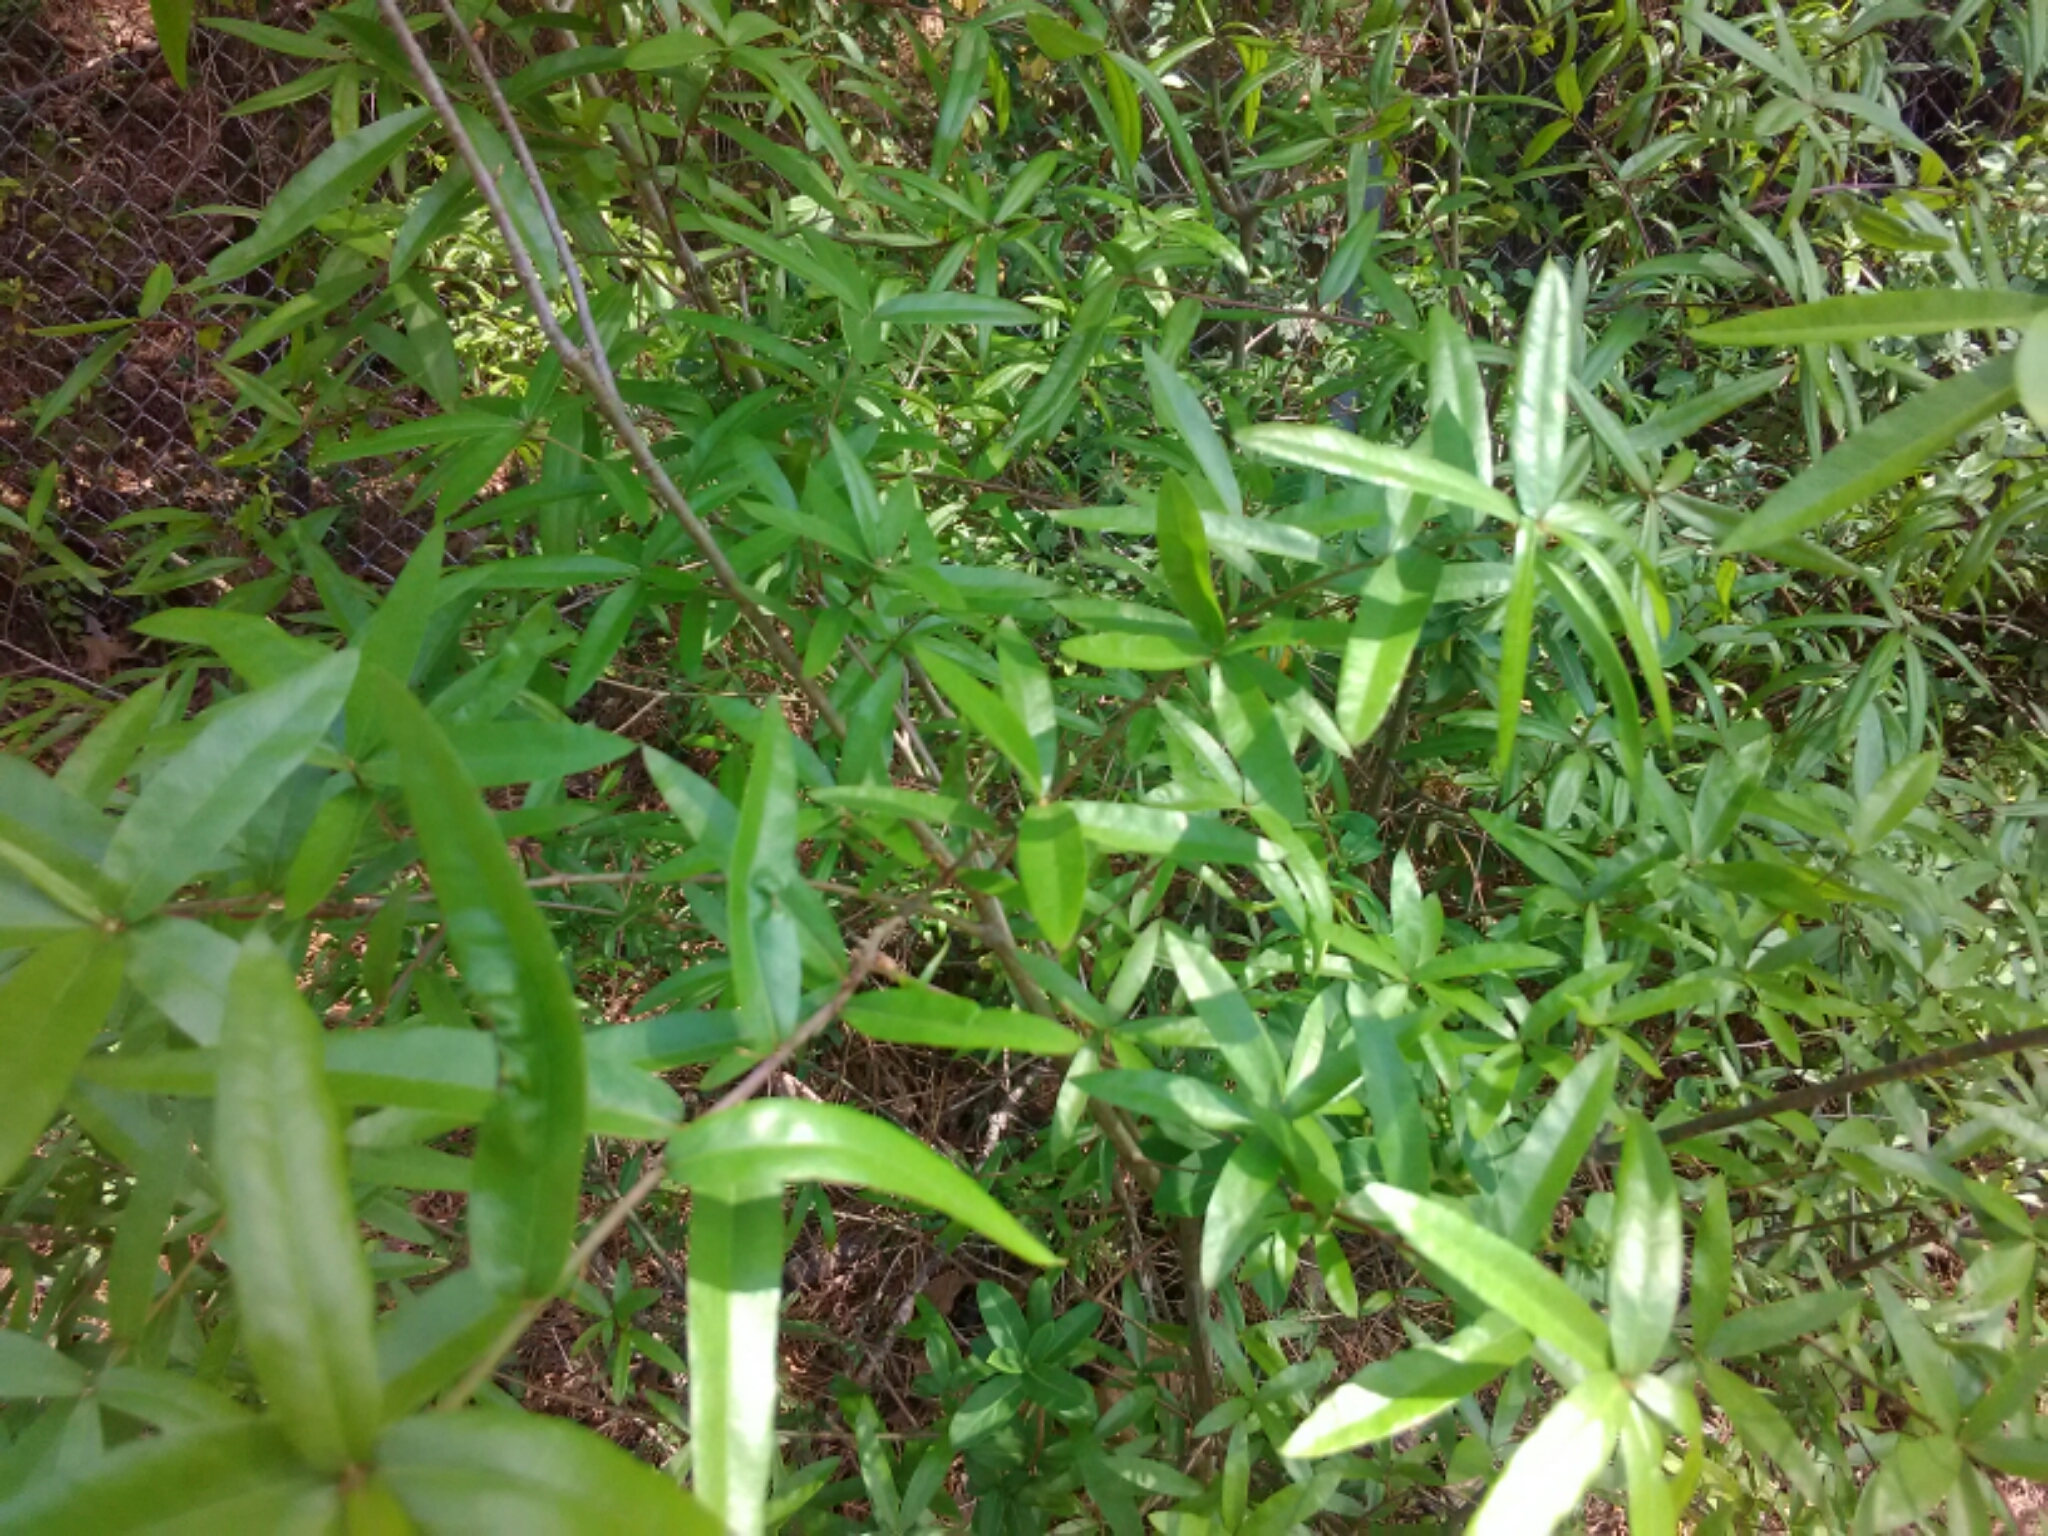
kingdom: Plantae
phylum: Tracheophyta
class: Magnoliopsida
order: Fagales
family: Fagaceae
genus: Quercus
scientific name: Quercus phellos
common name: Willow oak
